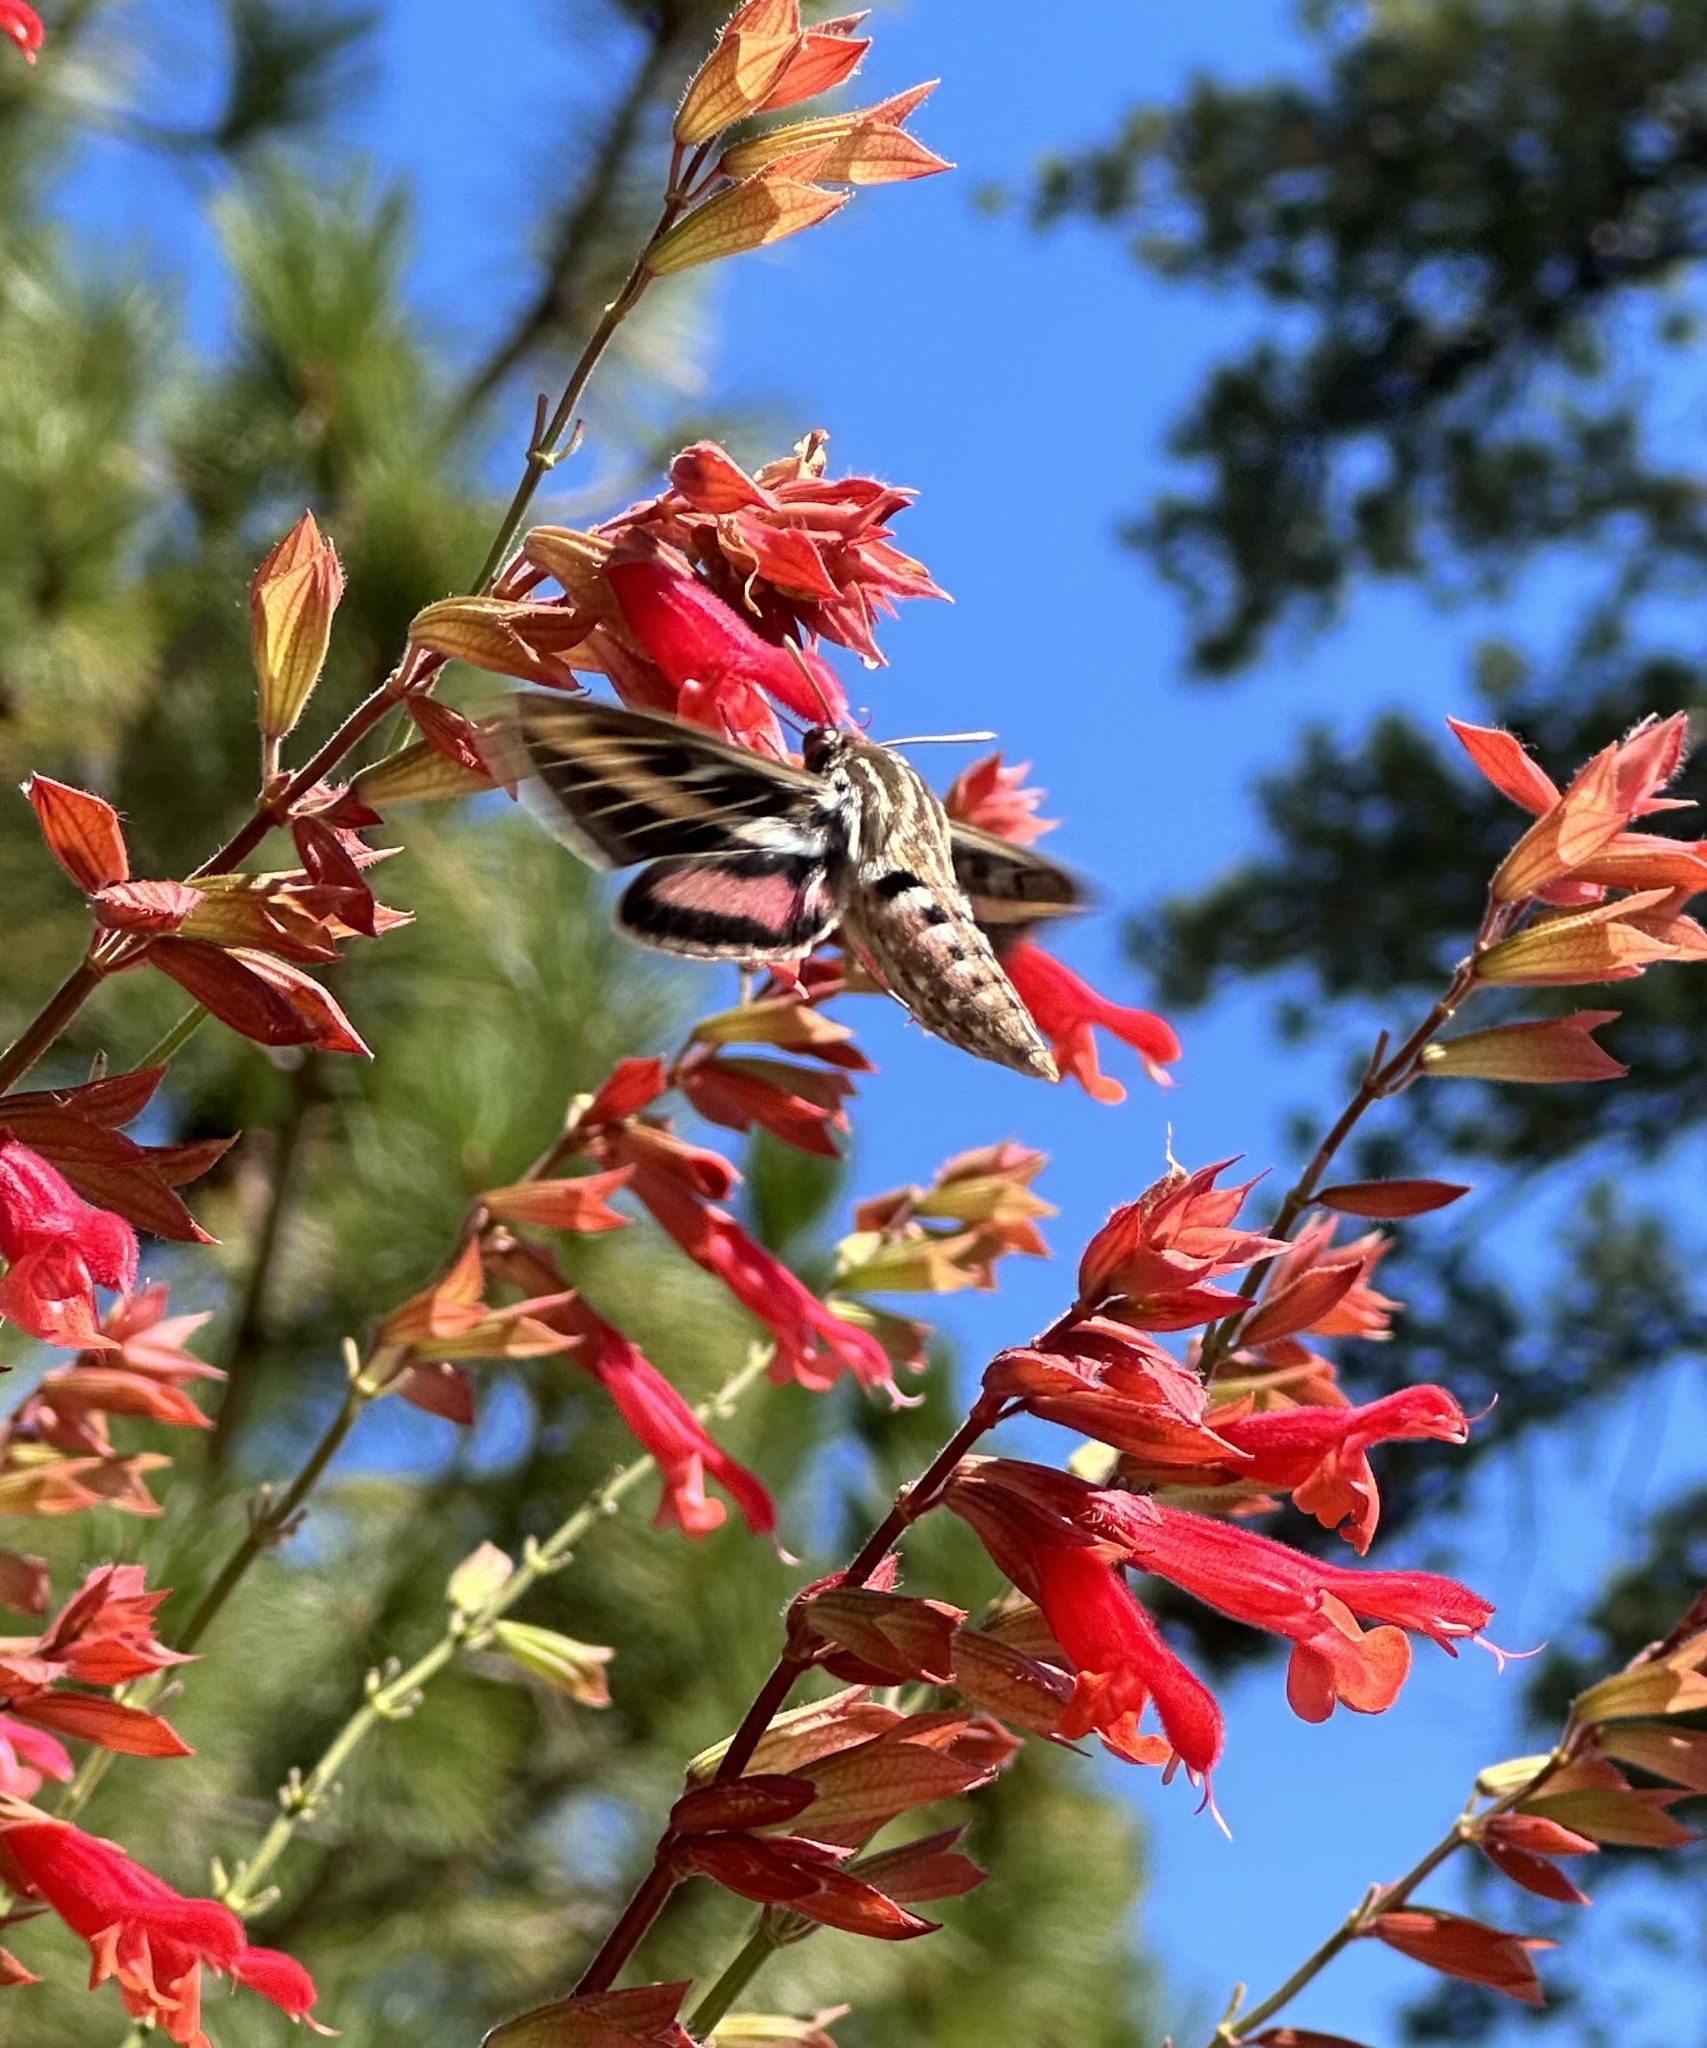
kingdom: Animalia
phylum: Arthropoda
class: Insecta
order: Lepidoptera
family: Sphingidae
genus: Hyles
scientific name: Hyles lineata
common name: White-lined sphinx
